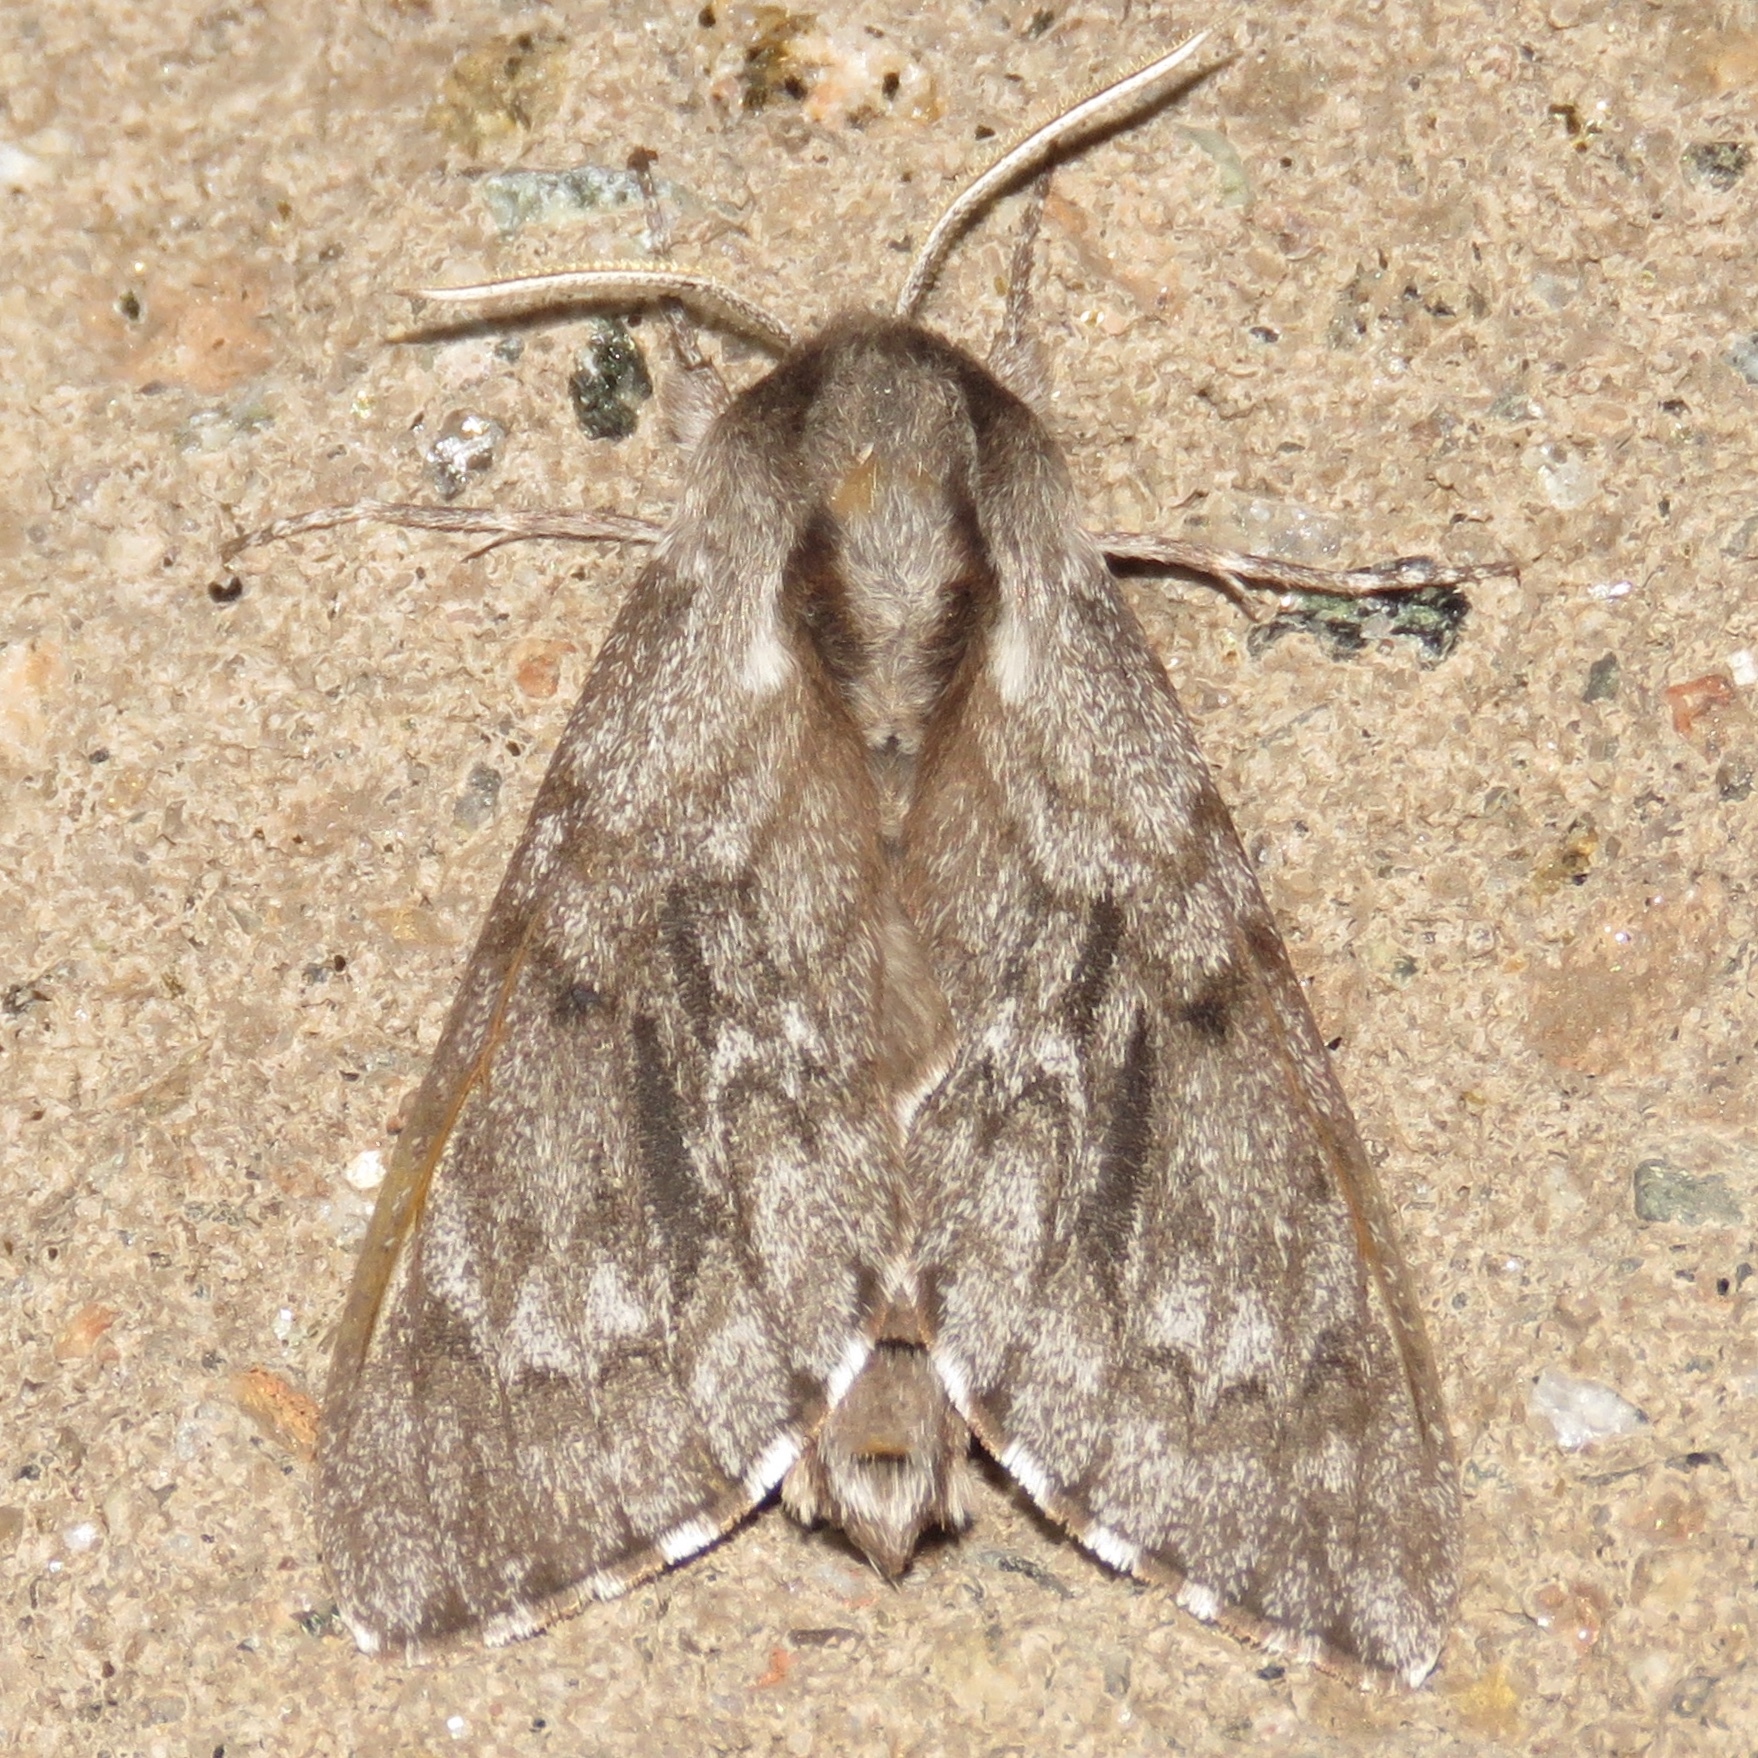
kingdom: Animalia
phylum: Arthropoda
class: Insecta
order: Lepidoptera
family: Sphingidae
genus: Lapara
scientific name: Lapara bombycoides
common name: Northern pine sphinx
